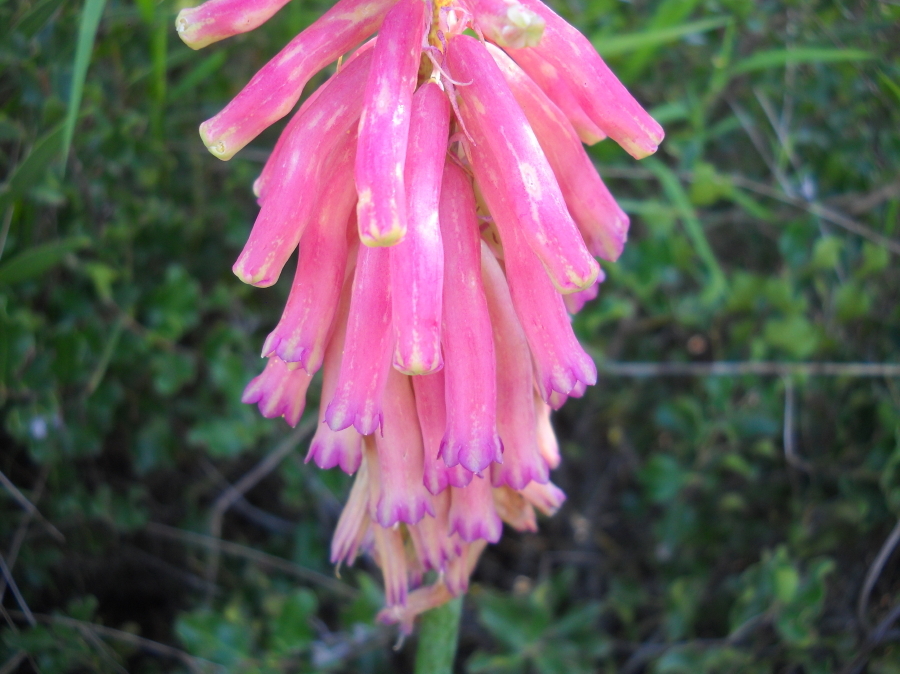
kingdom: Plantae
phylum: Tracheophyta
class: Liliopsida
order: Asparagales
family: Asparagaceae
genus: Veltheimia
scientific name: Veltheimia capensis
